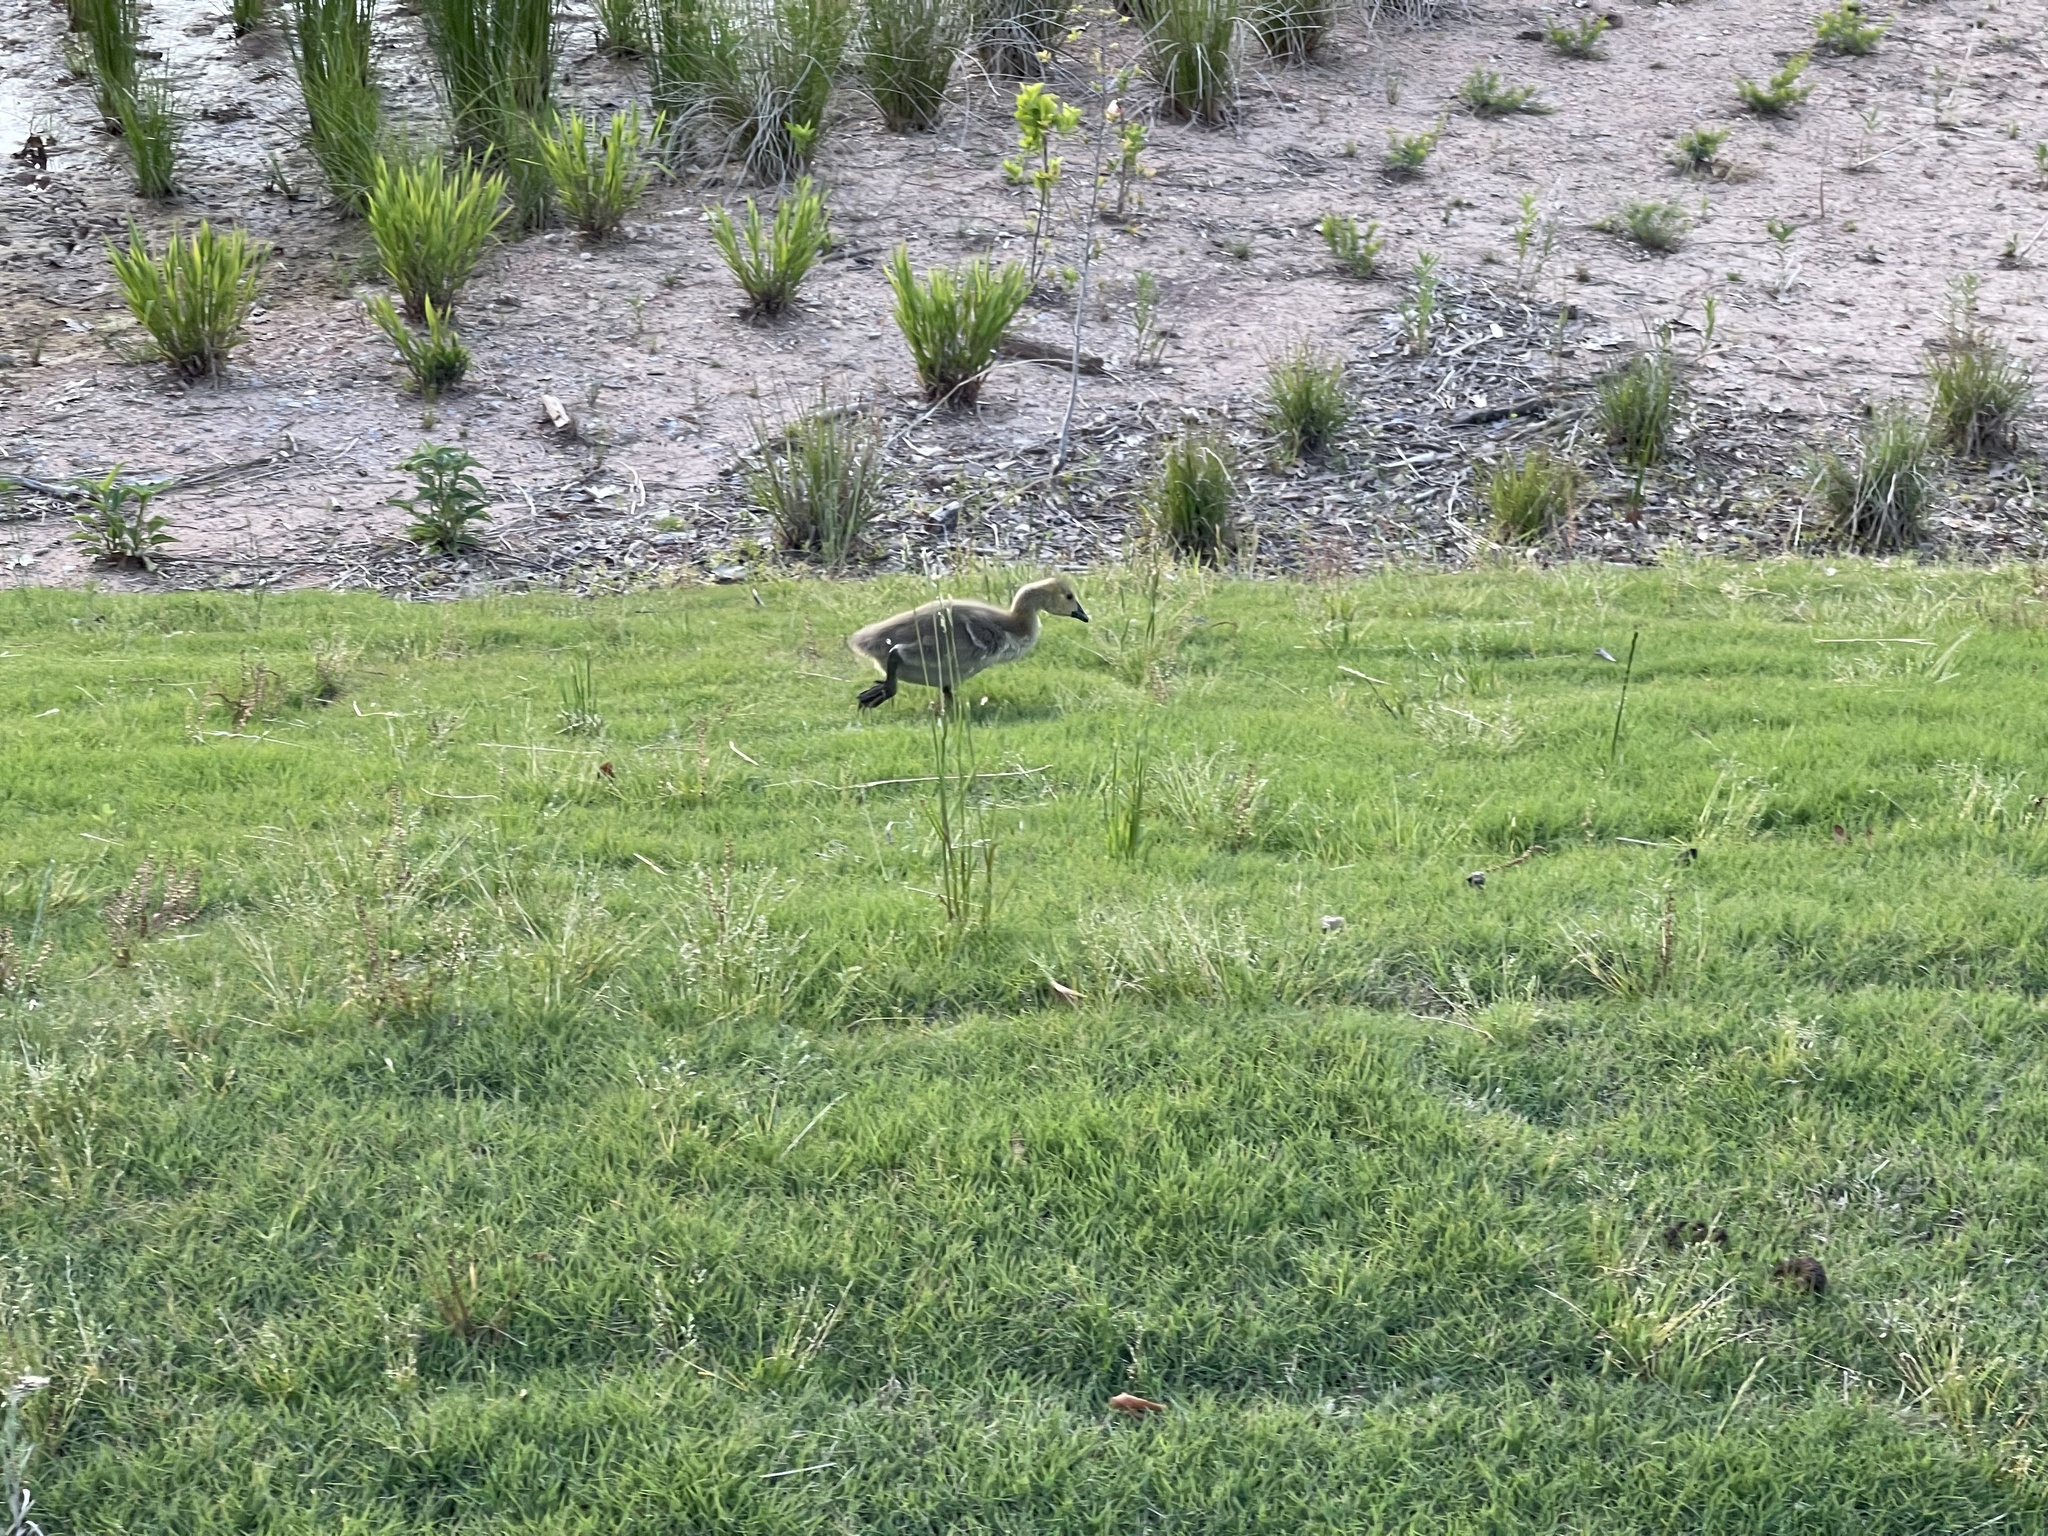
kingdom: Animalia
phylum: Chordata
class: Aves
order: Anseriformes
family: Anatidae
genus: Branta
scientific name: Branta canadensis
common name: Canada goose
